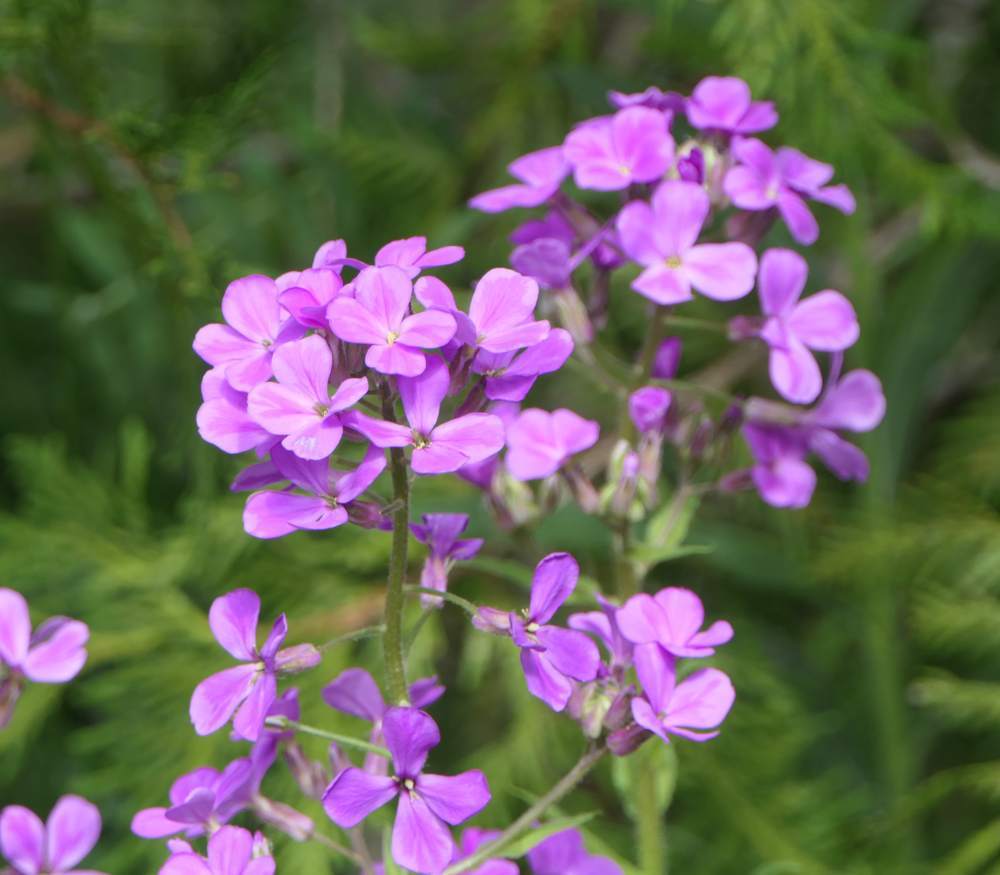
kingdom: Plantae
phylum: Tracheophyta
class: Magnoliopsida
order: Brassicales
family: Brassicaceae
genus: Hesperis
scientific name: Hesperis matronalis
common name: Dame's-violet
